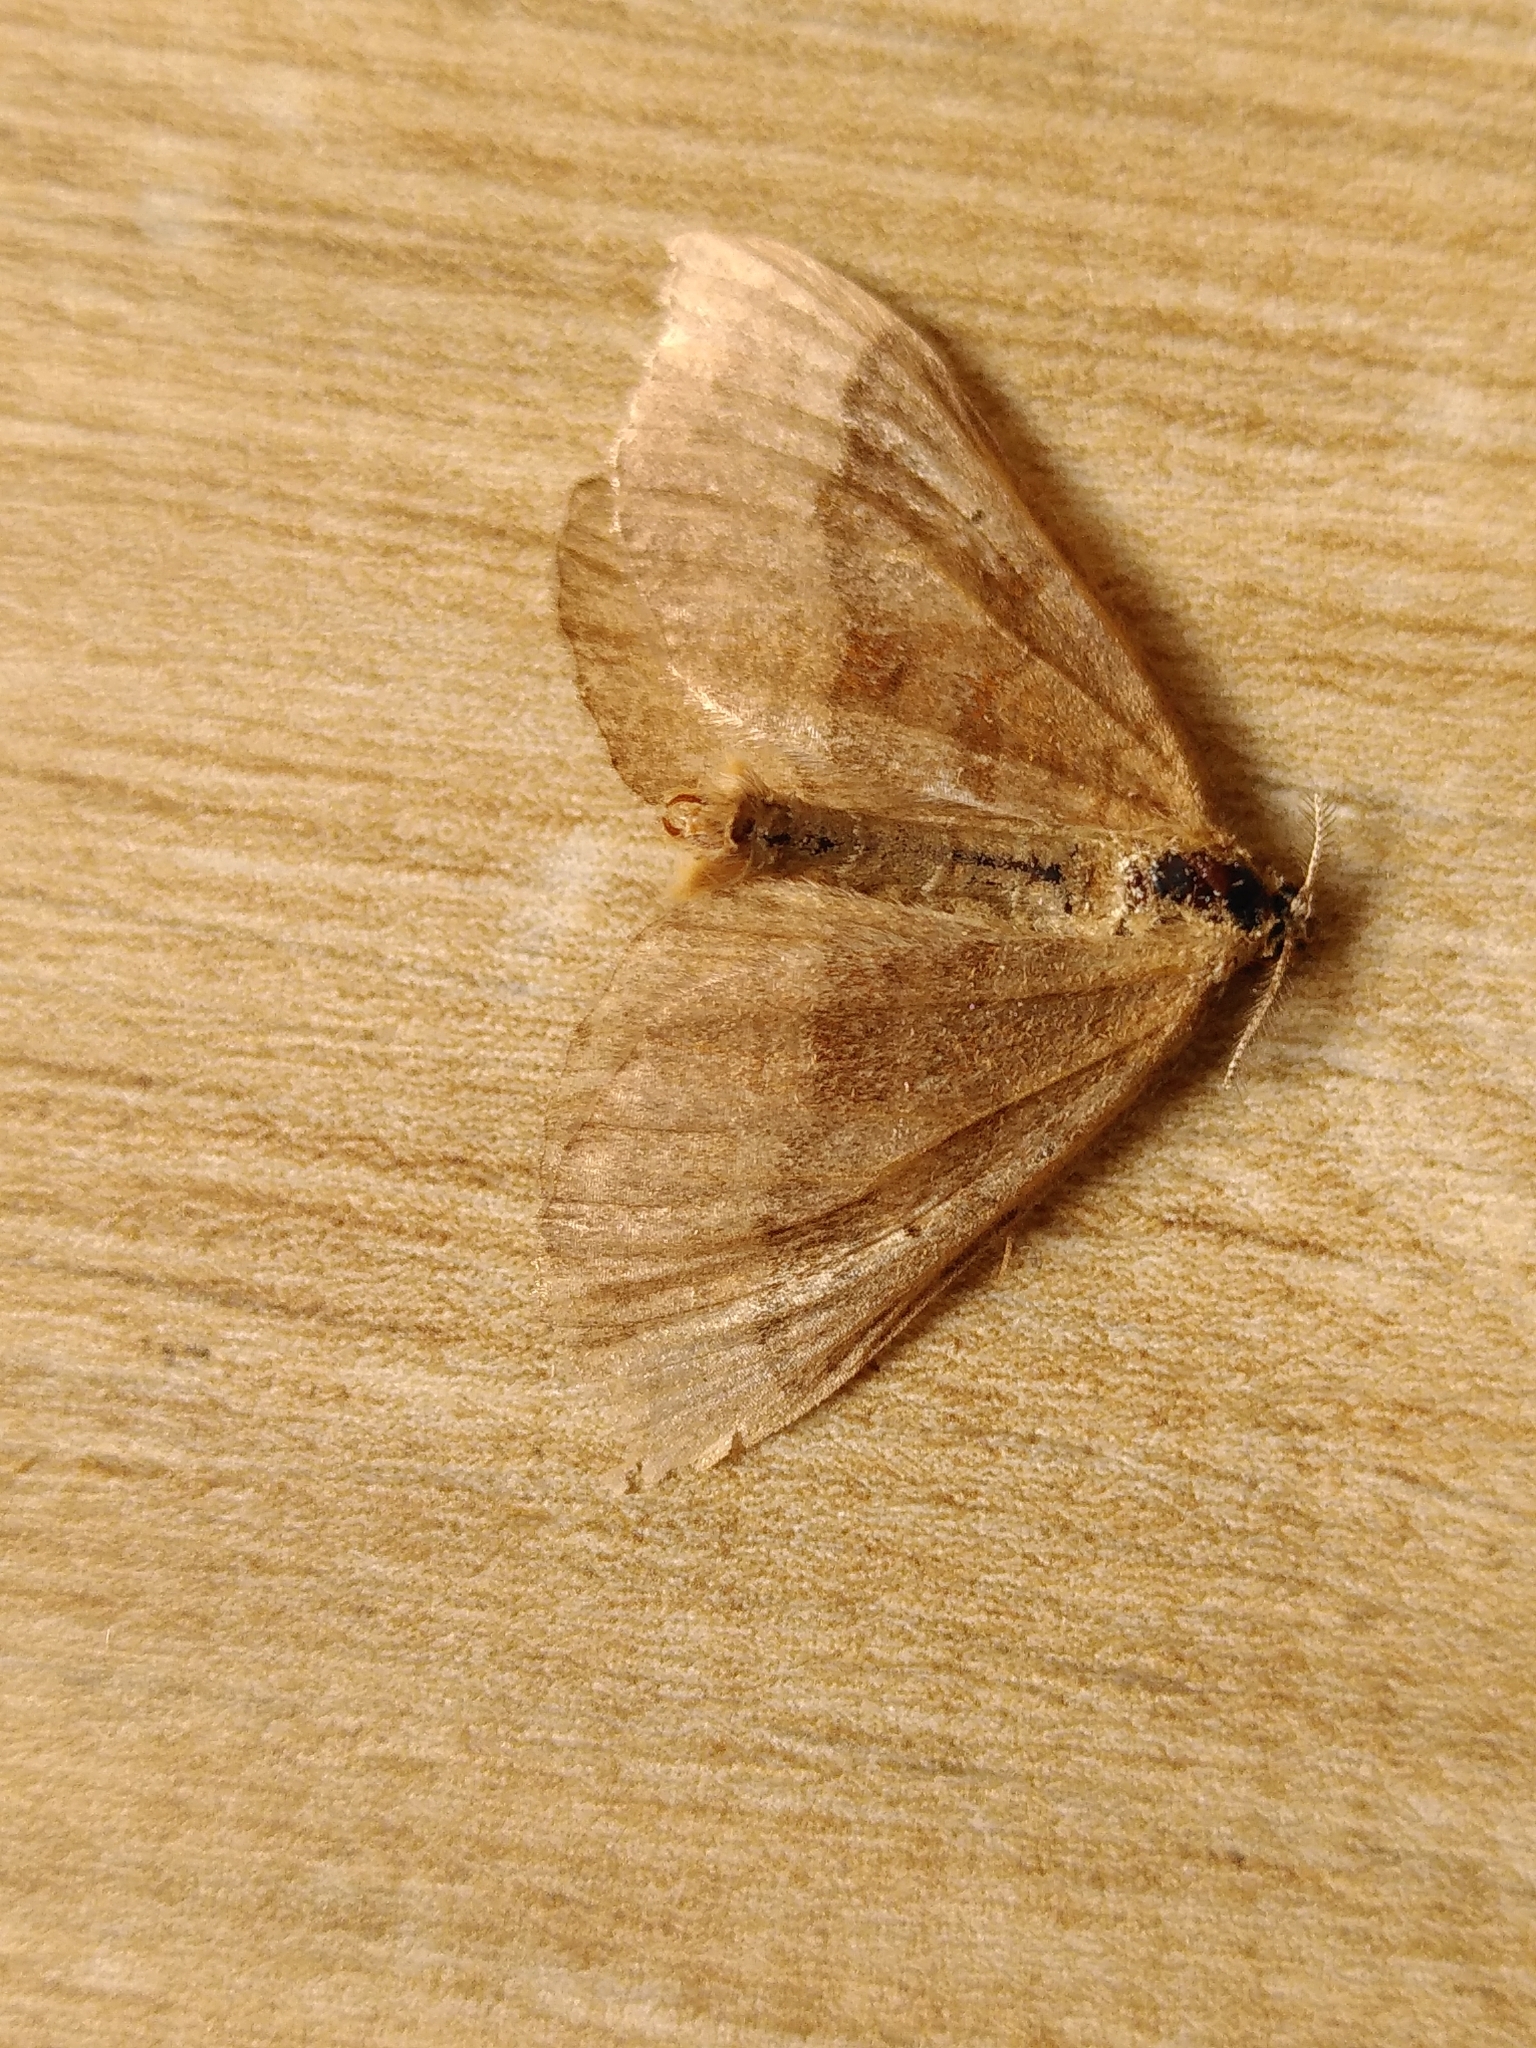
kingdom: Animalia
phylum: Arthropoda
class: Insecta
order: Lepidoptera
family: Geometridae
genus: Scotopteryx
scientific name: Scotopteryx chenopodiata
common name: Shaded broad-bar
